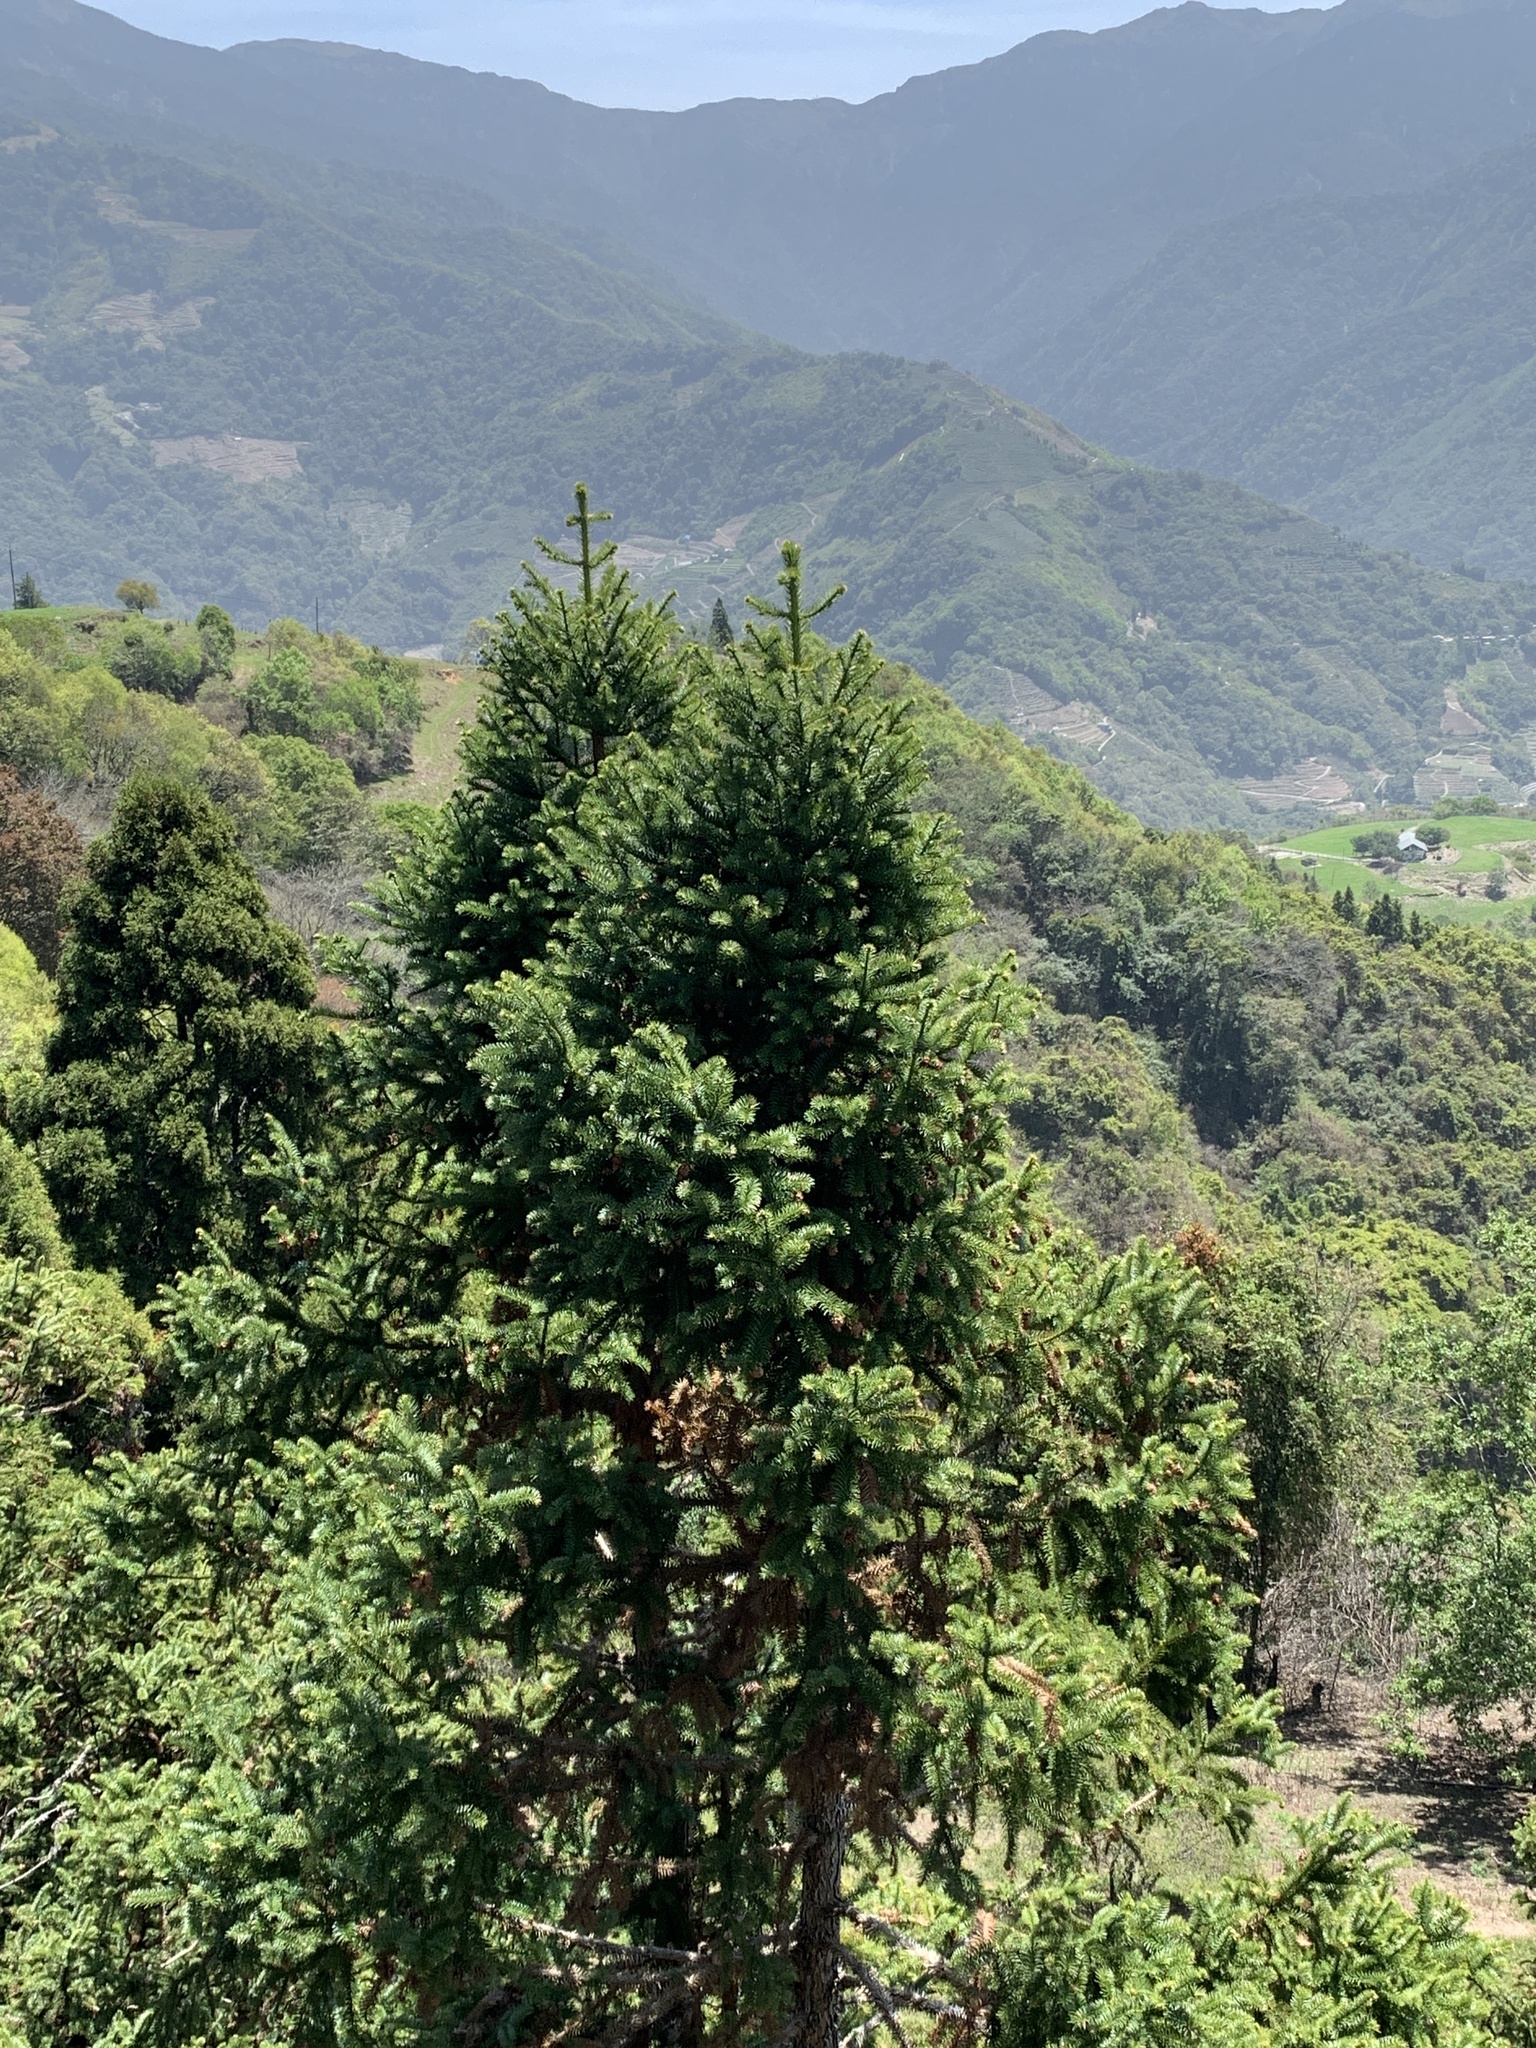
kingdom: Plantae
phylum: Tracheophyta
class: Pinopsida
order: Pinales
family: Cupressaceae
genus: Cunninghamia
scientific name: Cunninghamia konishii
